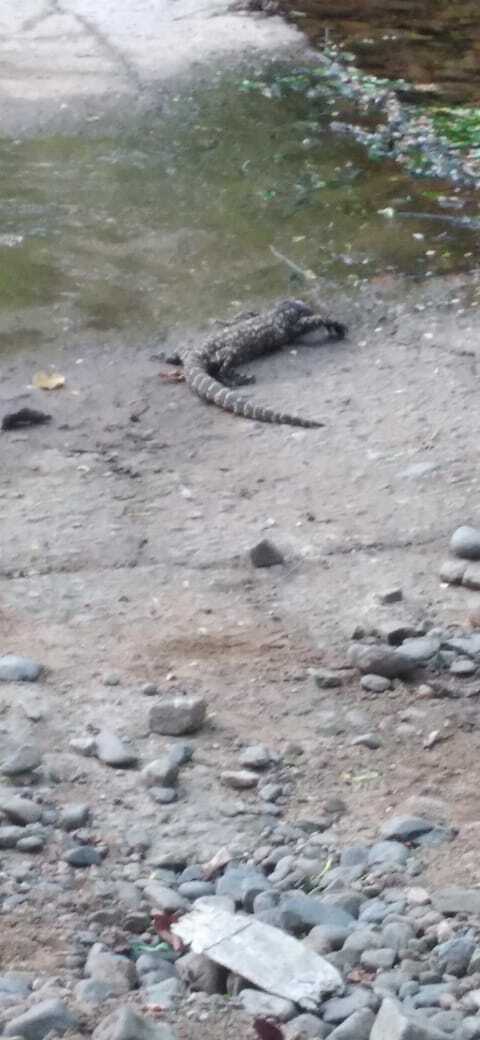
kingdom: Animalia
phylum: Chordata
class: Squamata
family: Helodermatidae
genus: Heloderma
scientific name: Heloderma horridum
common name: Mexican beaded lizard
